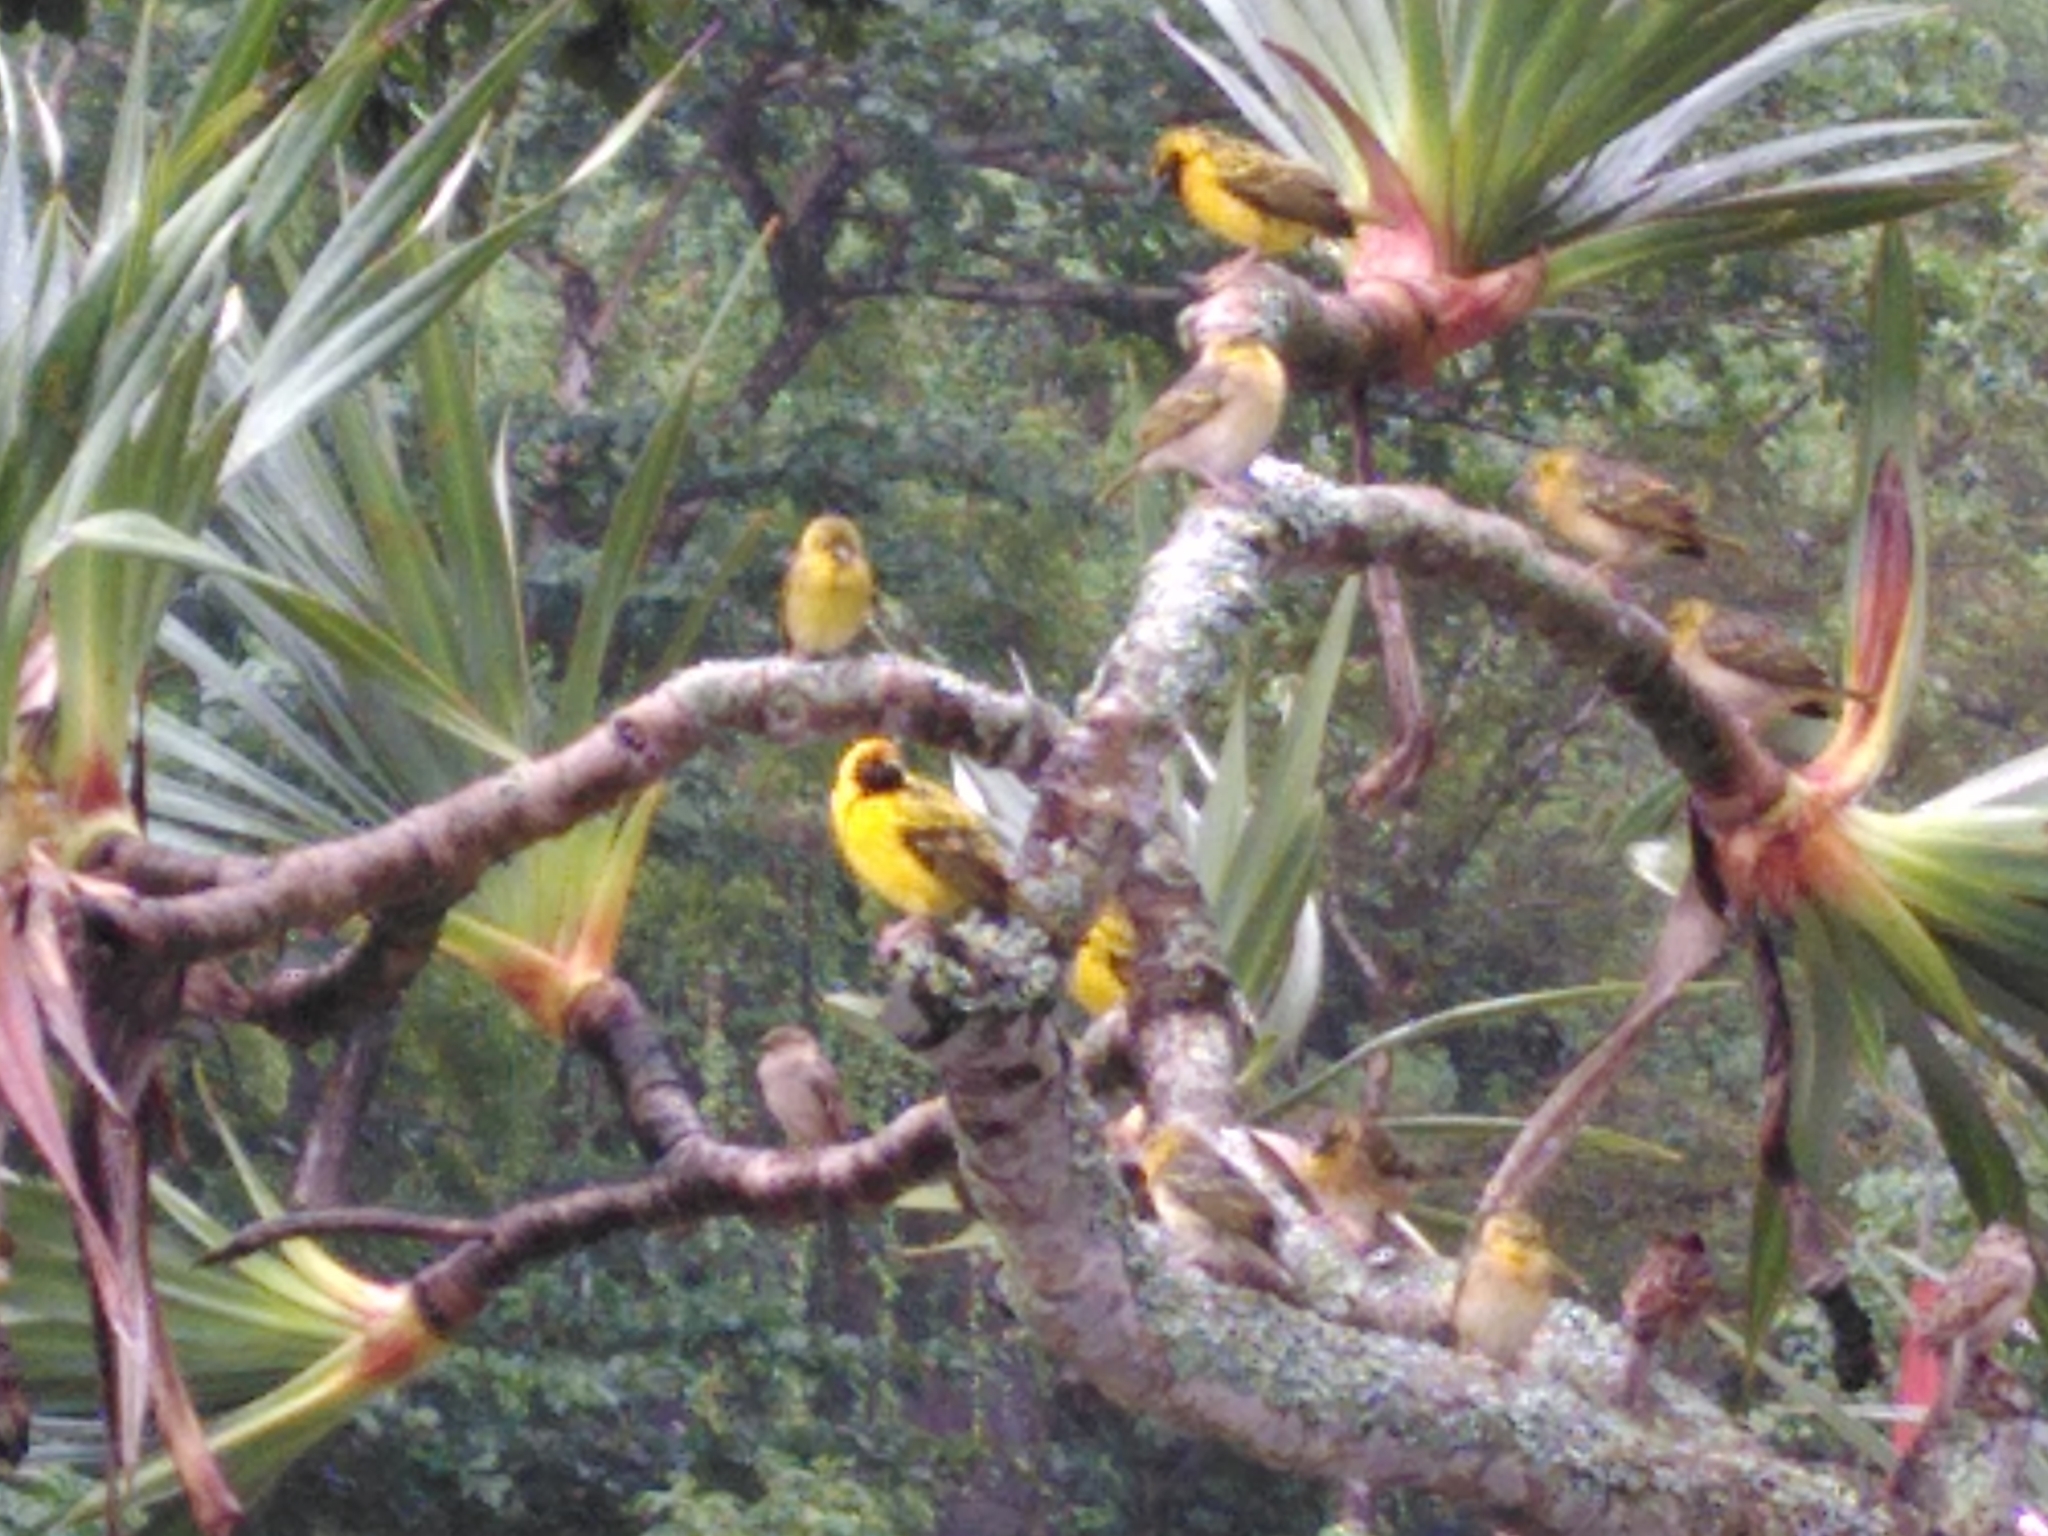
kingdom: Animalia
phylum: Chordata
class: Aves
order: Passeriformes
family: Ploceidae
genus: Ploceus
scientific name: Ploceus cucullatus
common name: Village weaver
